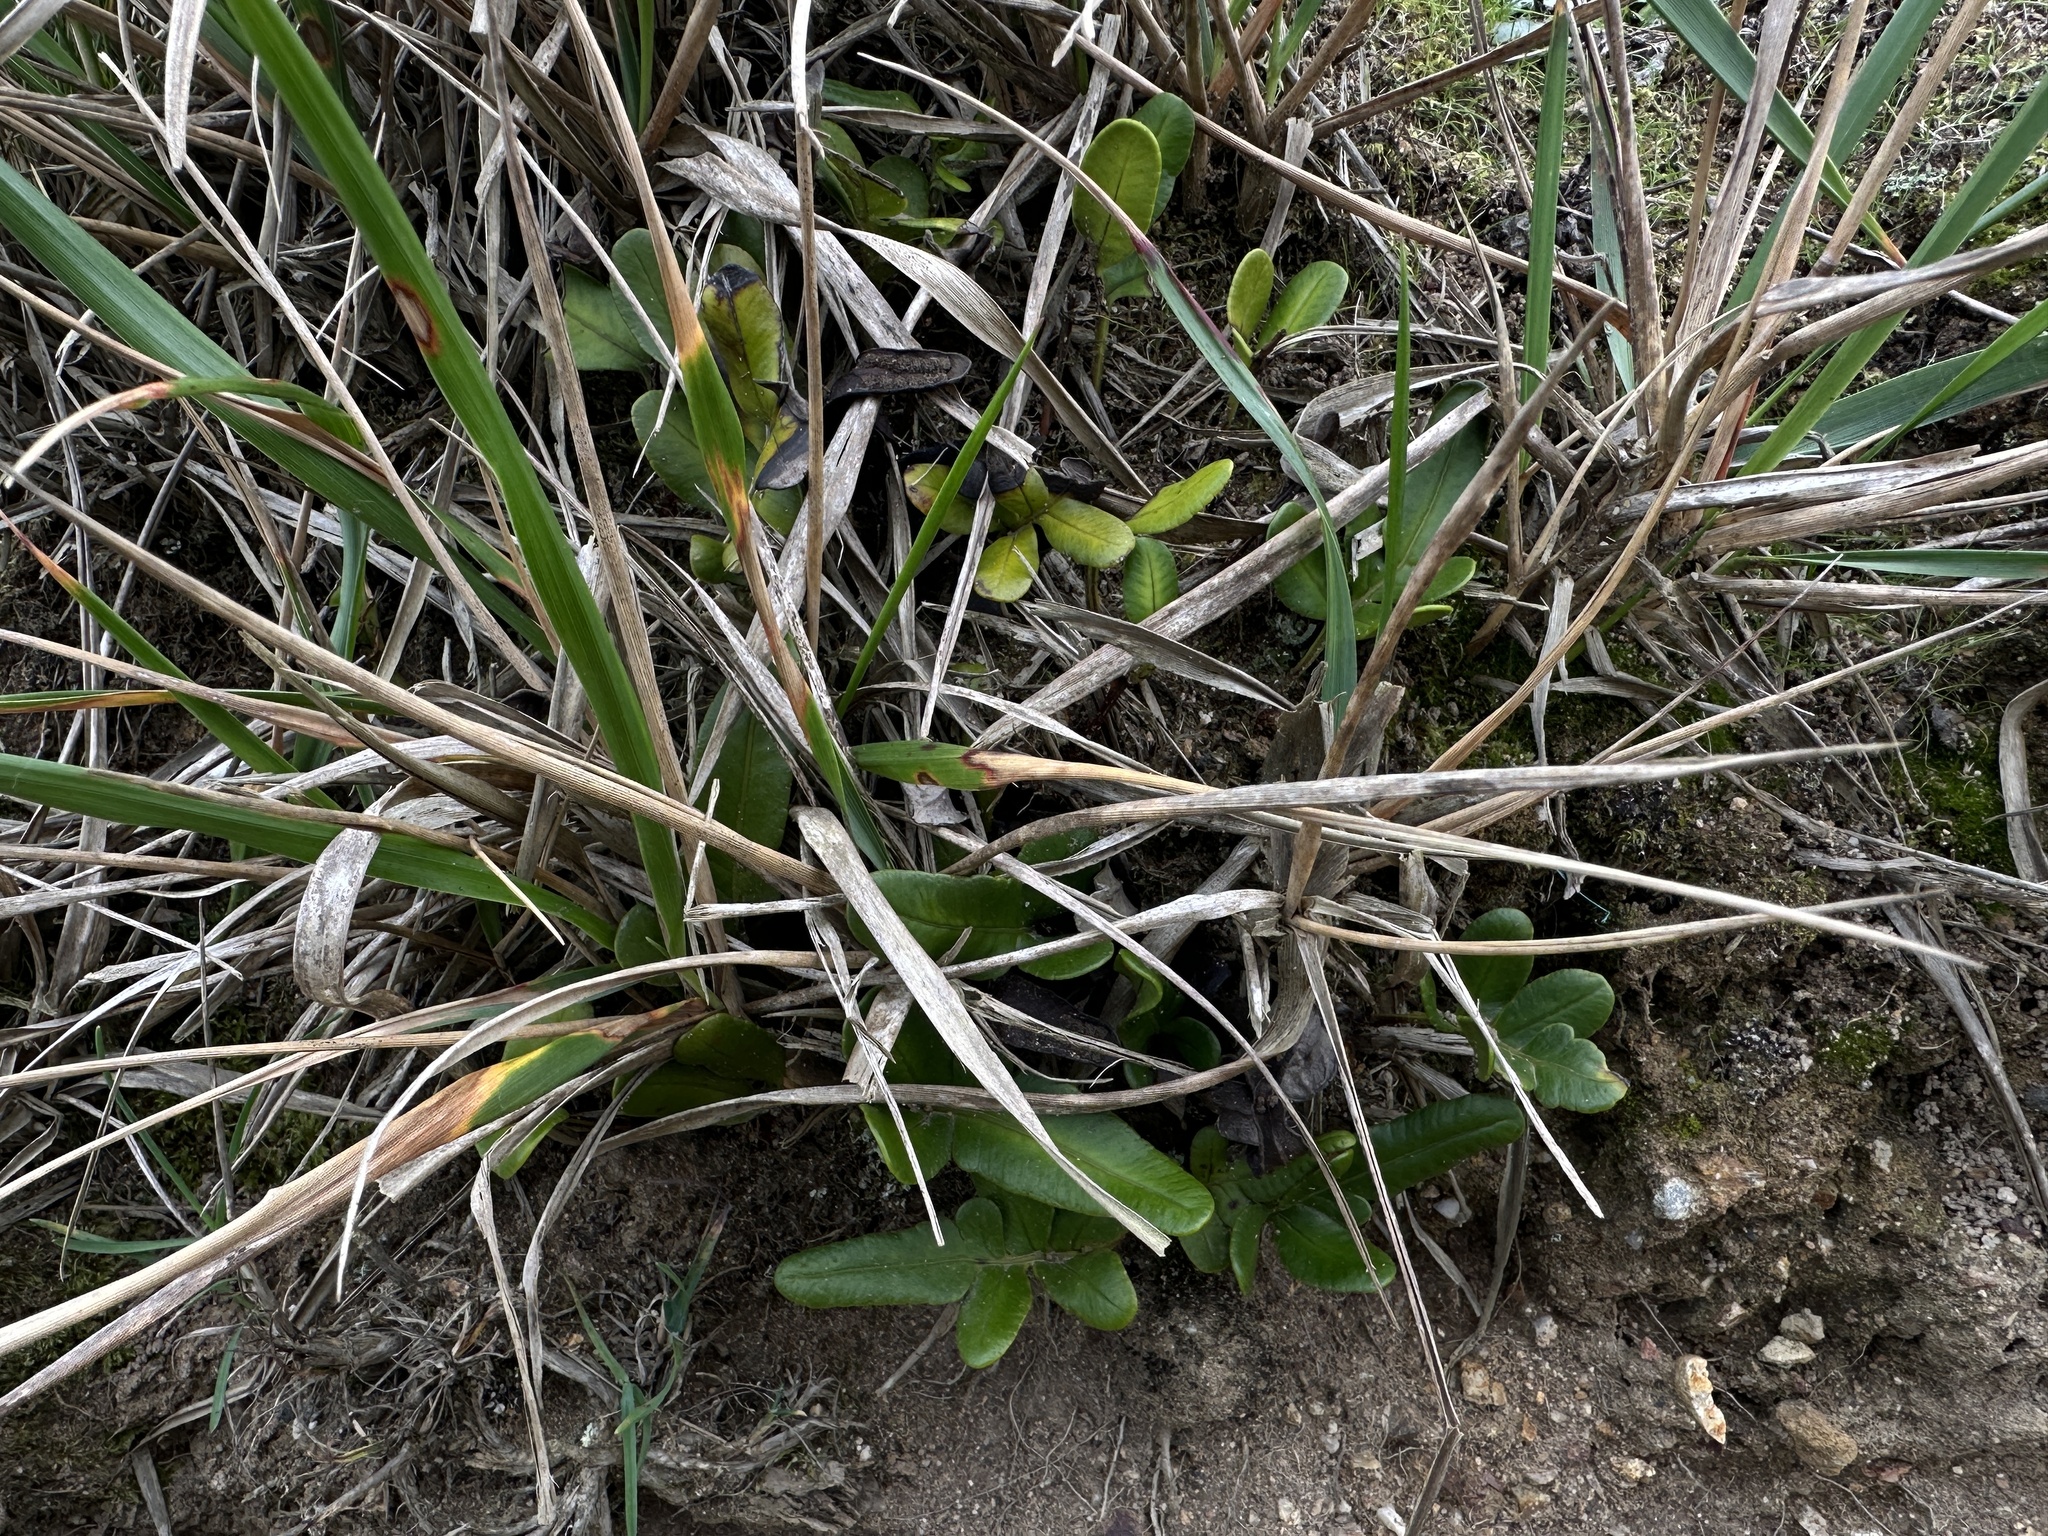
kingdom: Plantae
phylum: Tracheophyta
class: Polypodiopsida
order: Polypodiales
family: Polypodiaceae
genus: Polypodium
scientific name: Polypodium scouleri
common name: Scouler's polypody
